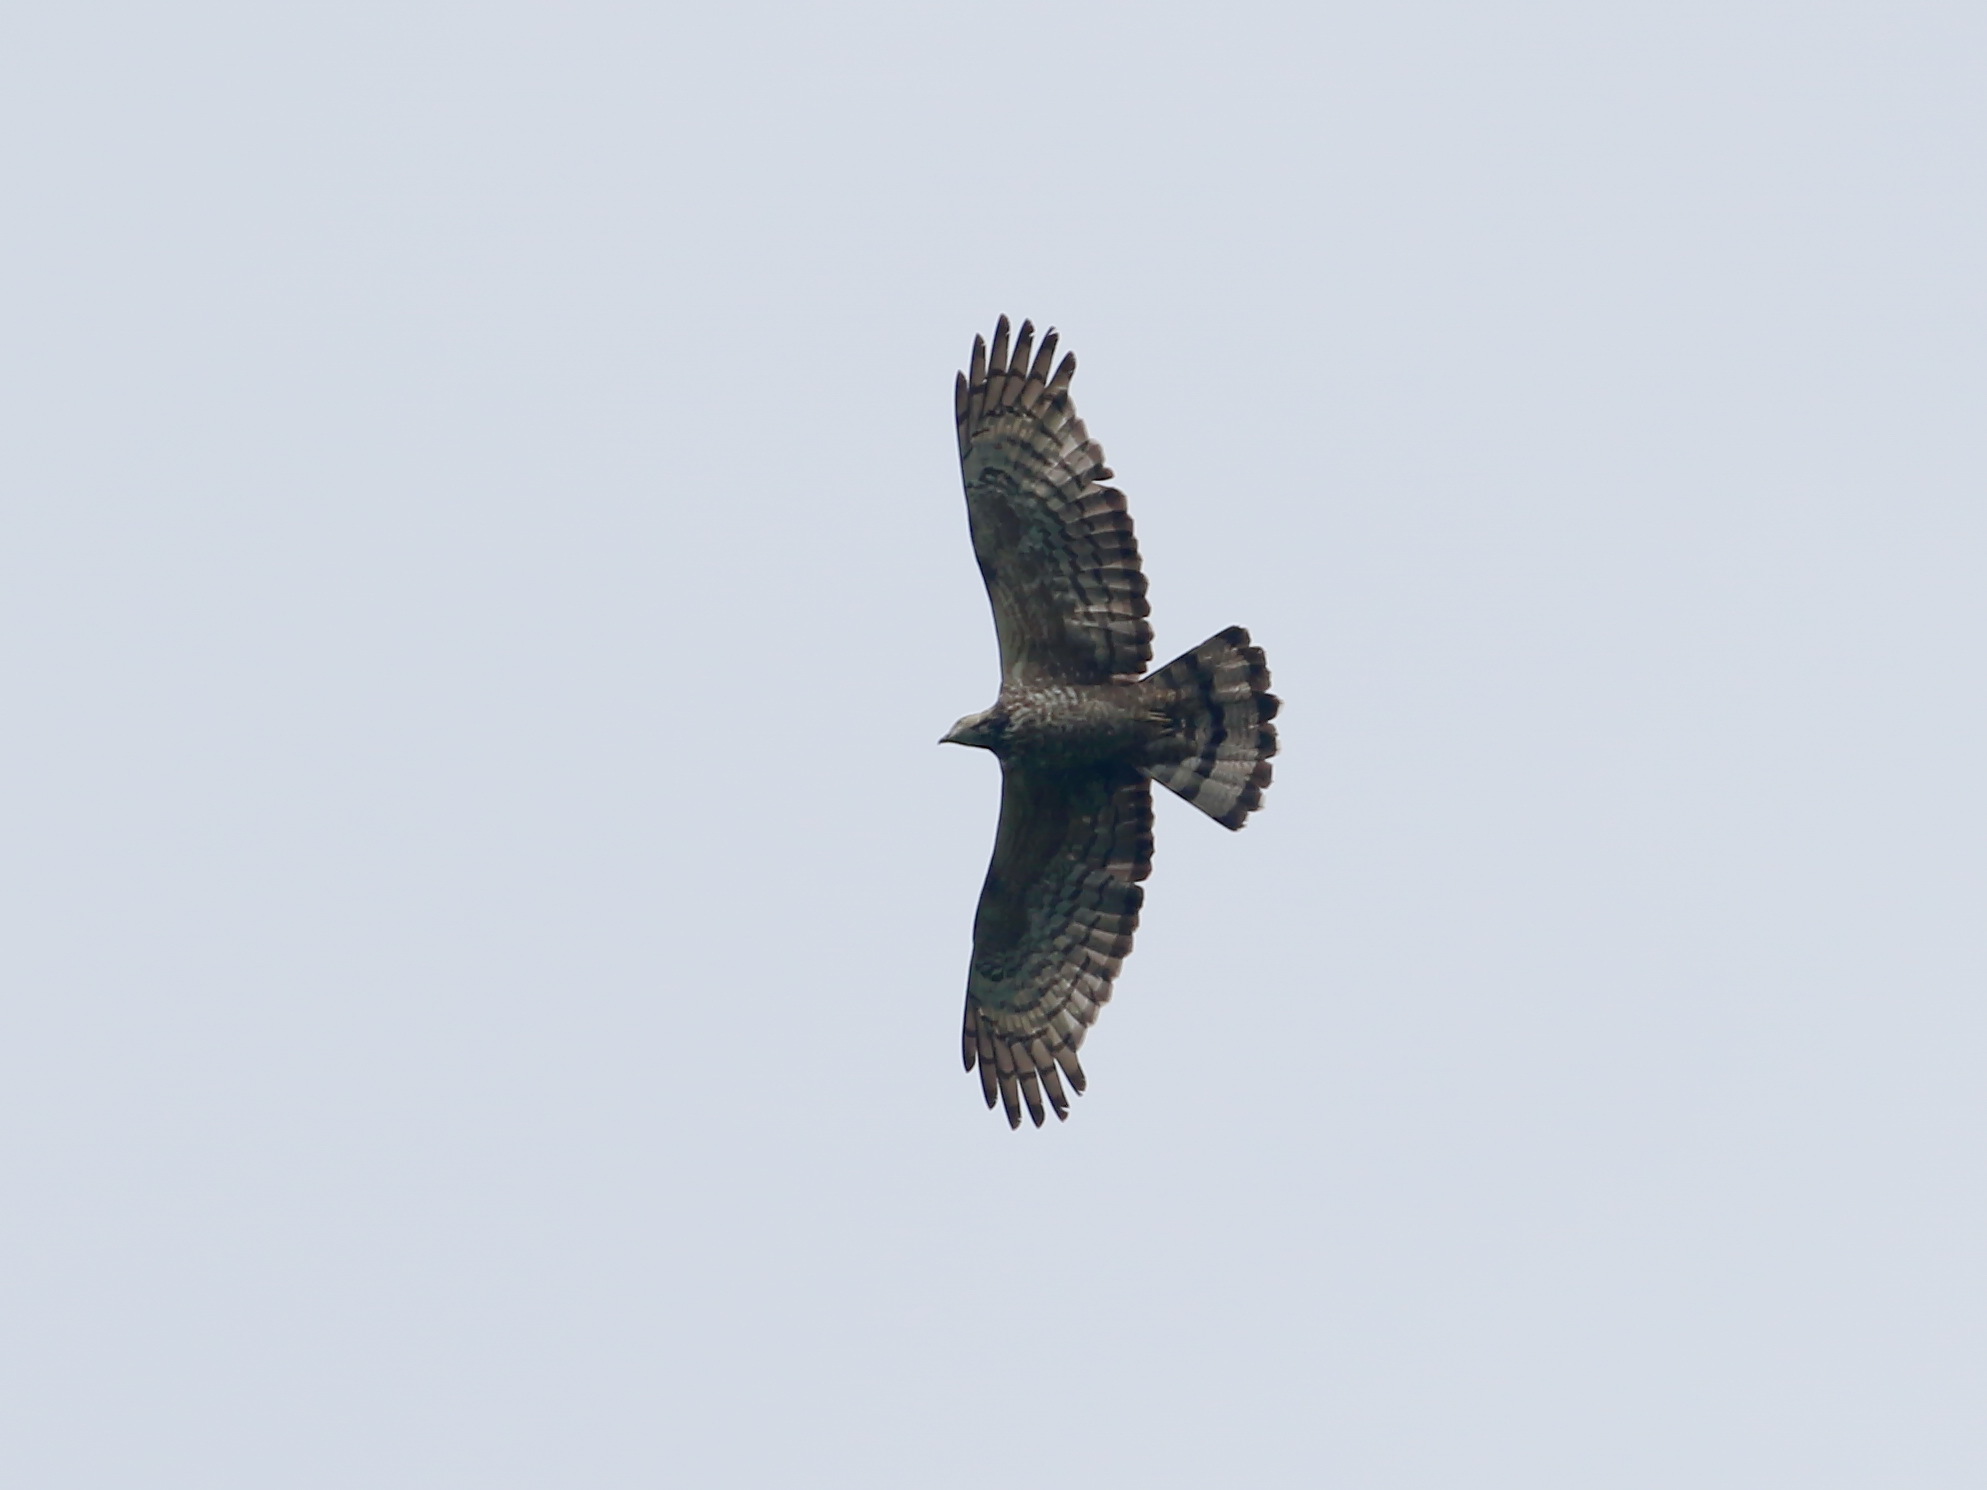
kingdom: Animalia
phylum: Chordata
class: Aves
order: Accipitriformes
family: Accipitridae
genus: Pernis
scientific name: Pernis ptilorhynchus
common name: Crested honey buzzard
